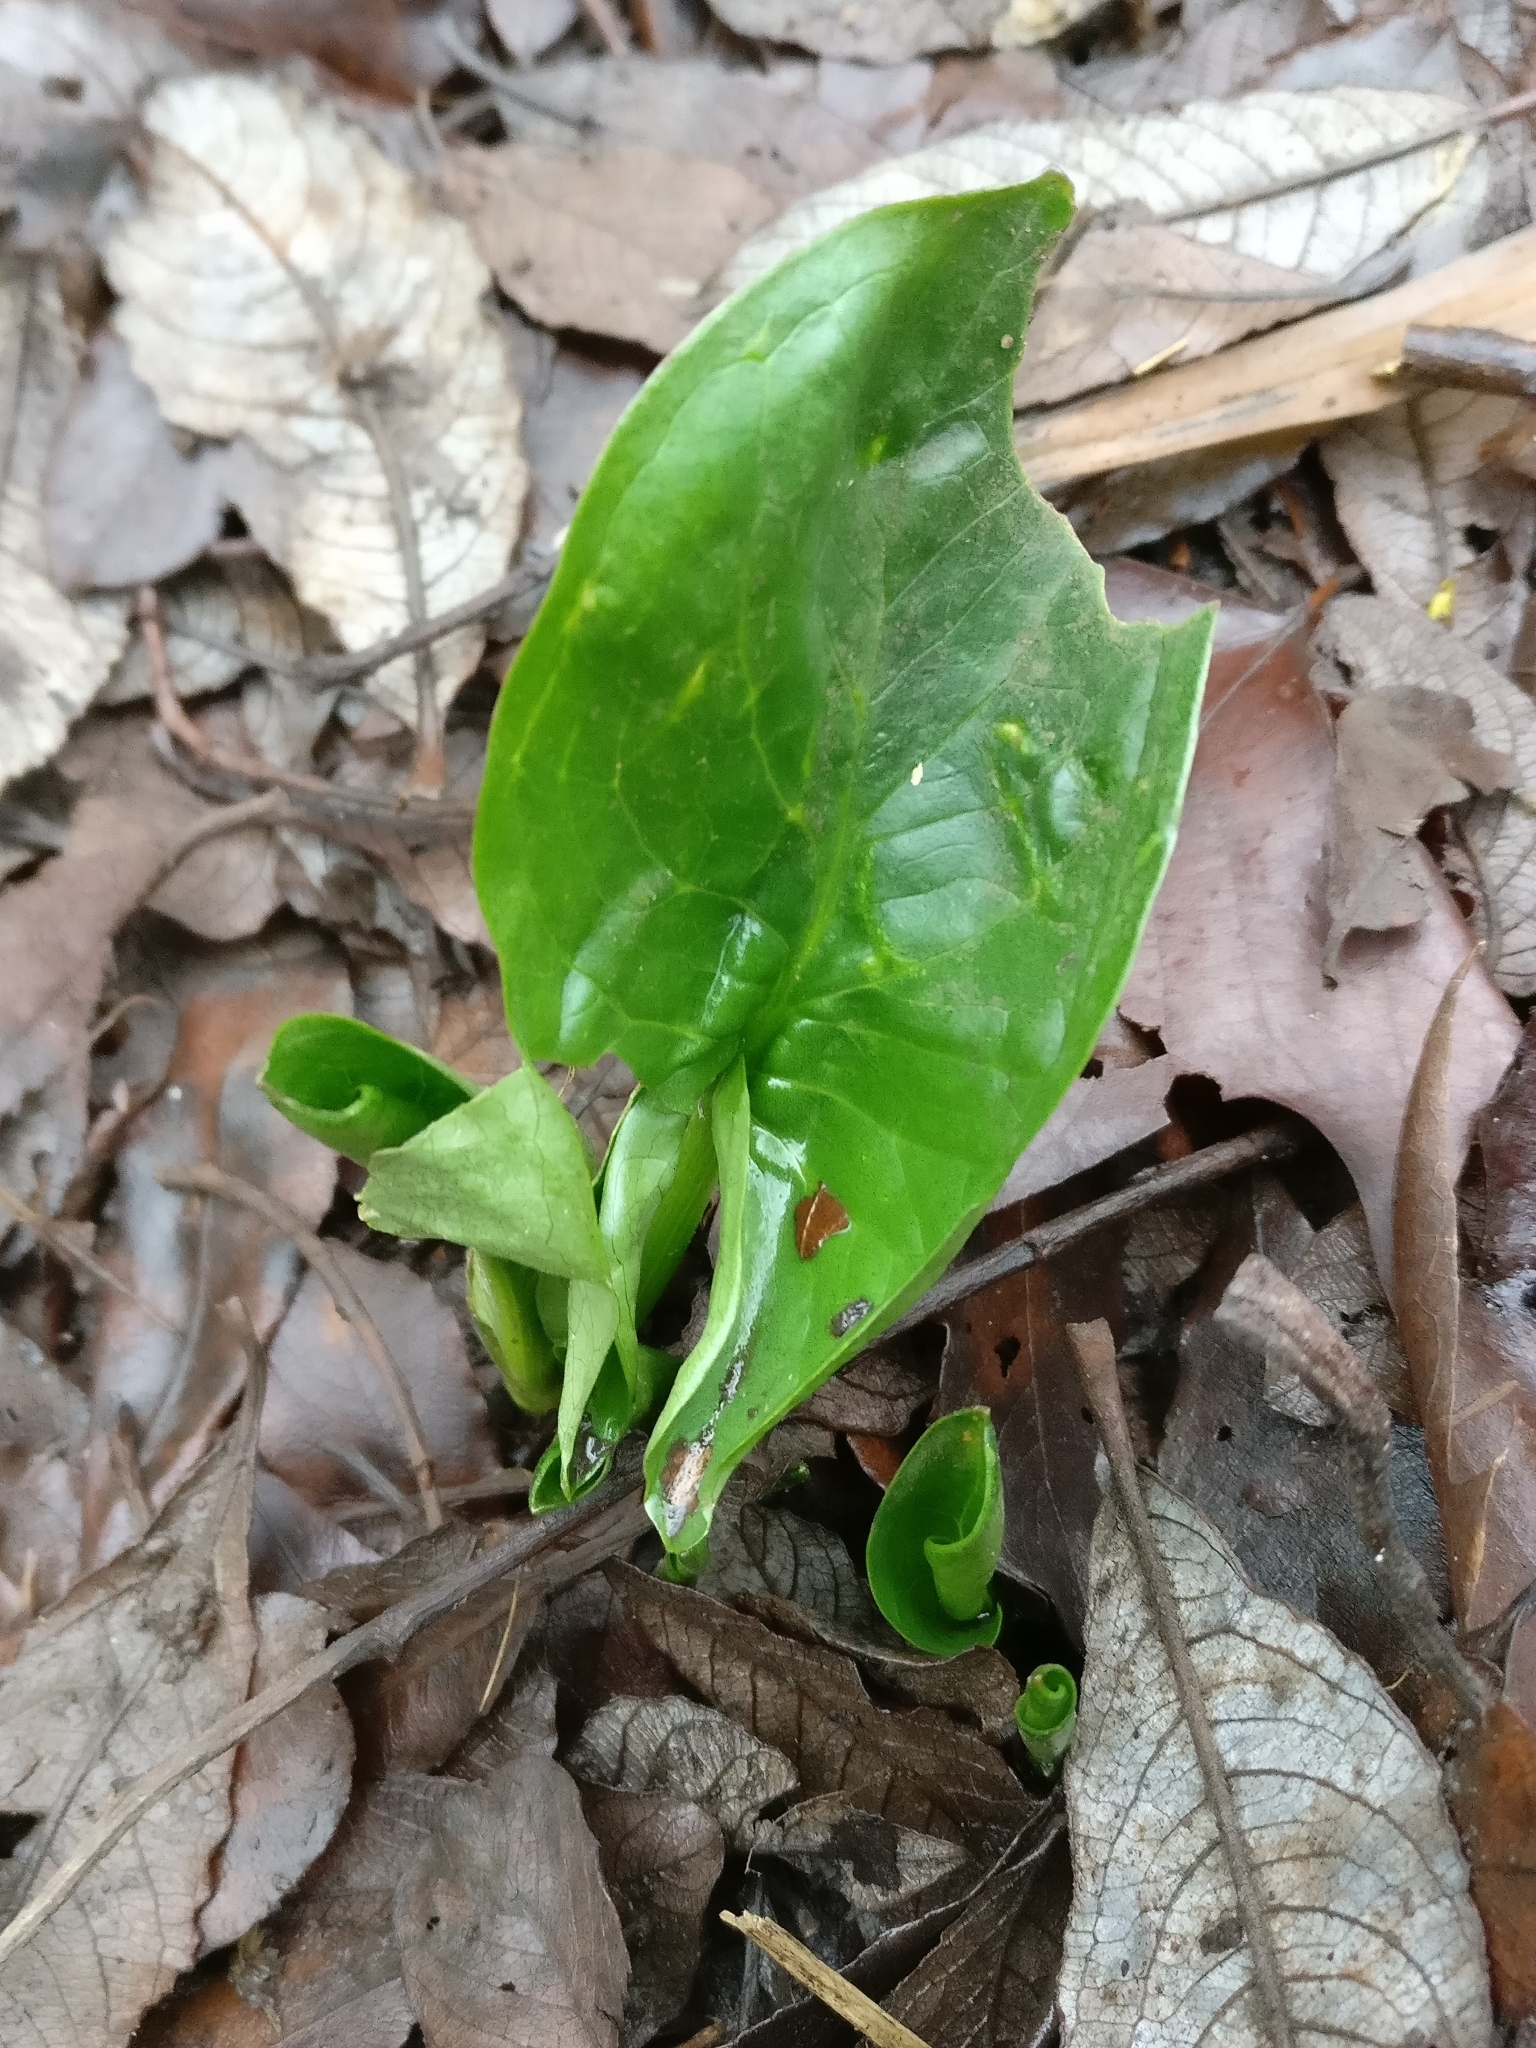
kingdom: Plantae
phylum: Tracheophyta
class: Liliopsida
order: Alismatales
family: Araceae
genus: Arum
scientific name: Arum maculatum
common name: Lords-and-ladies
